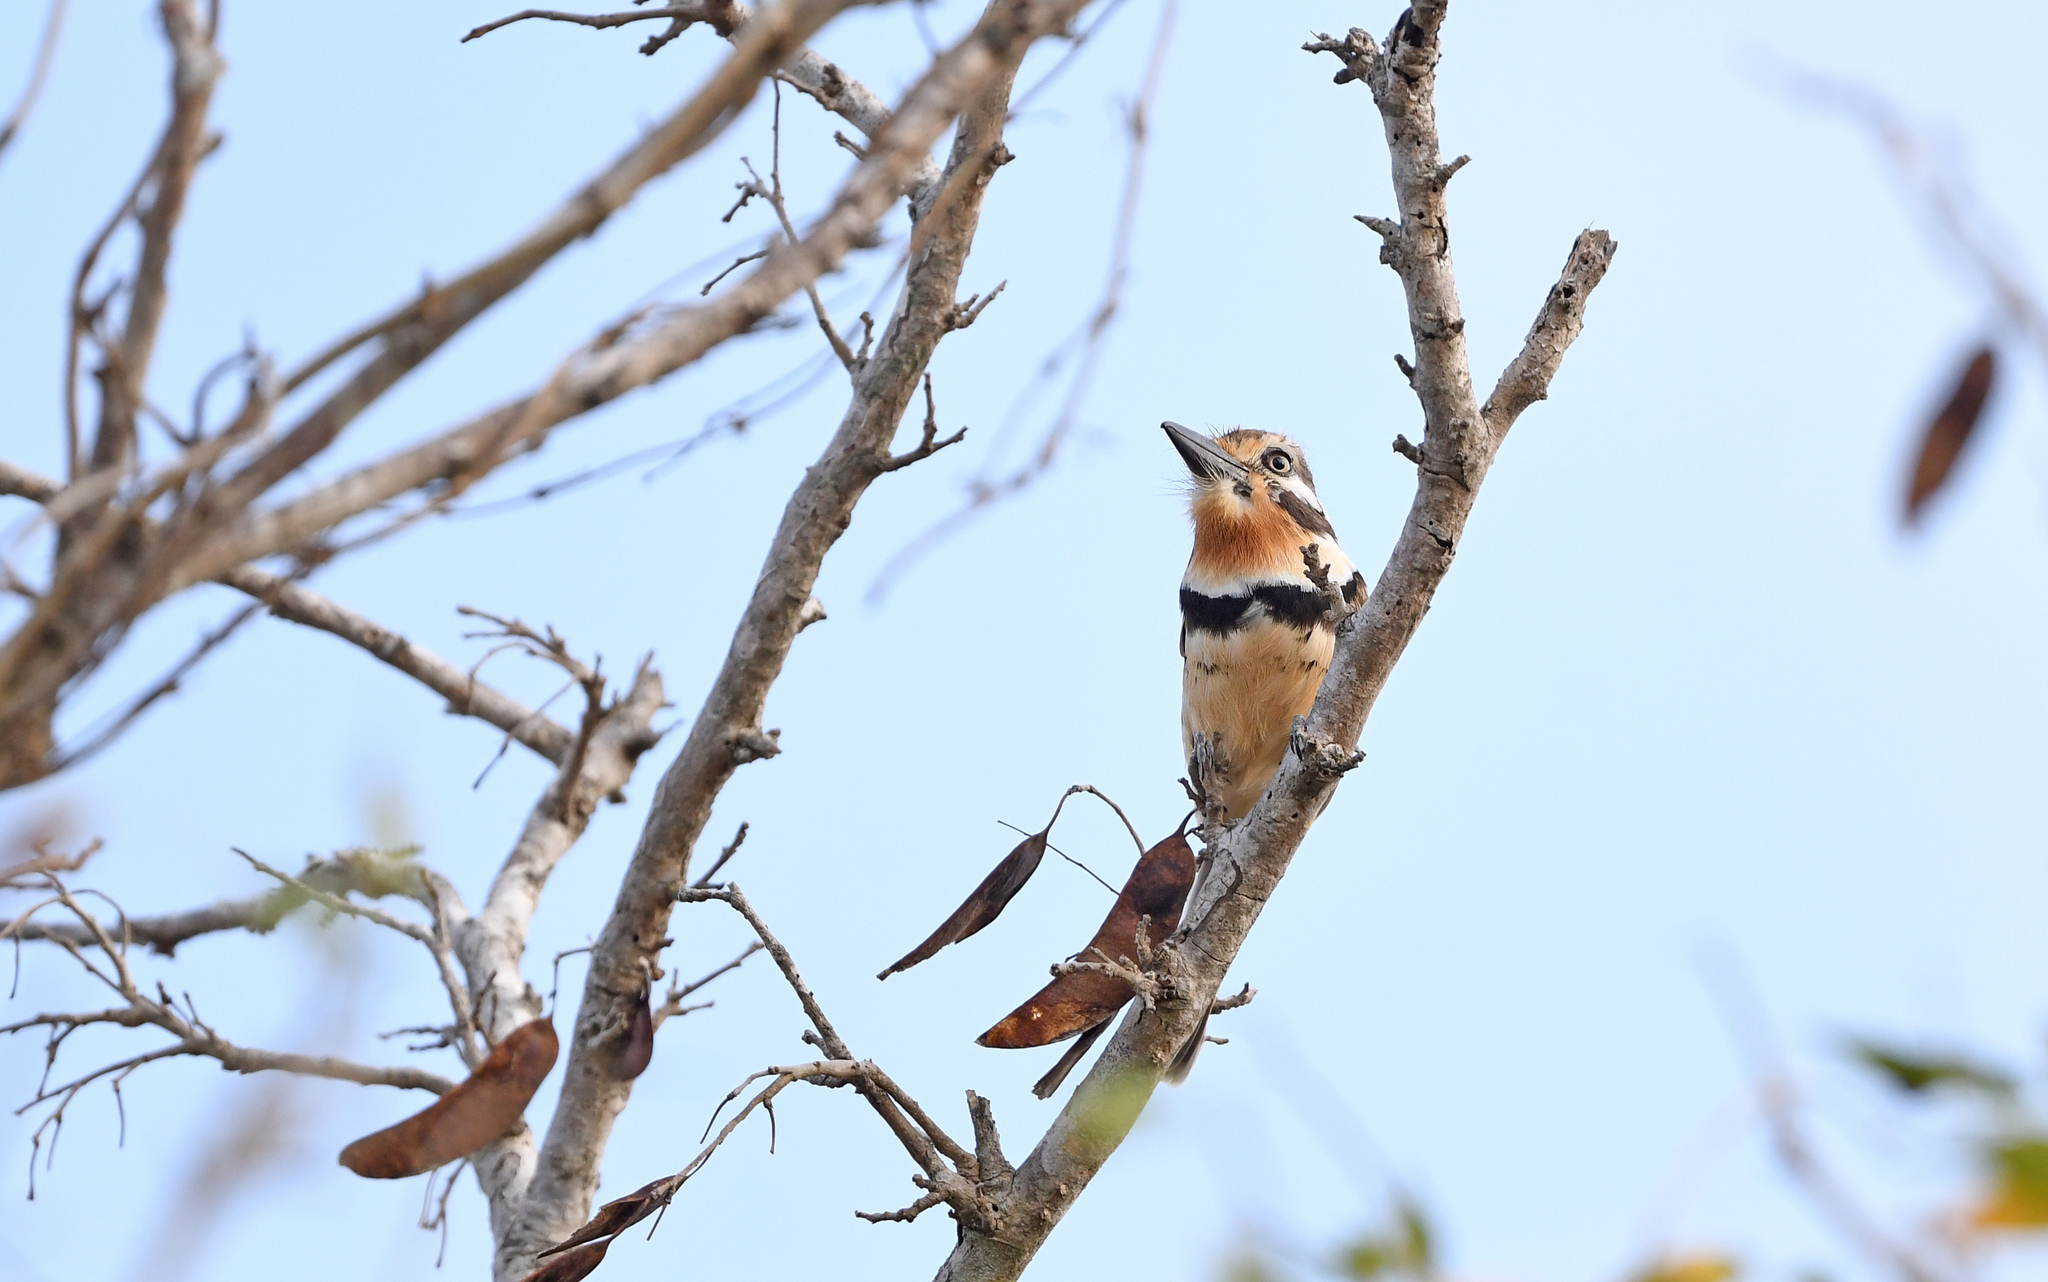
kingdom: Animalia
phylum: Chordata
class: Aves
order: Piciformes
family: Bucconidae
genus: Hypnelus
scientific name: Hypnelus ruficollis
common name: Russet-throated puffbird
